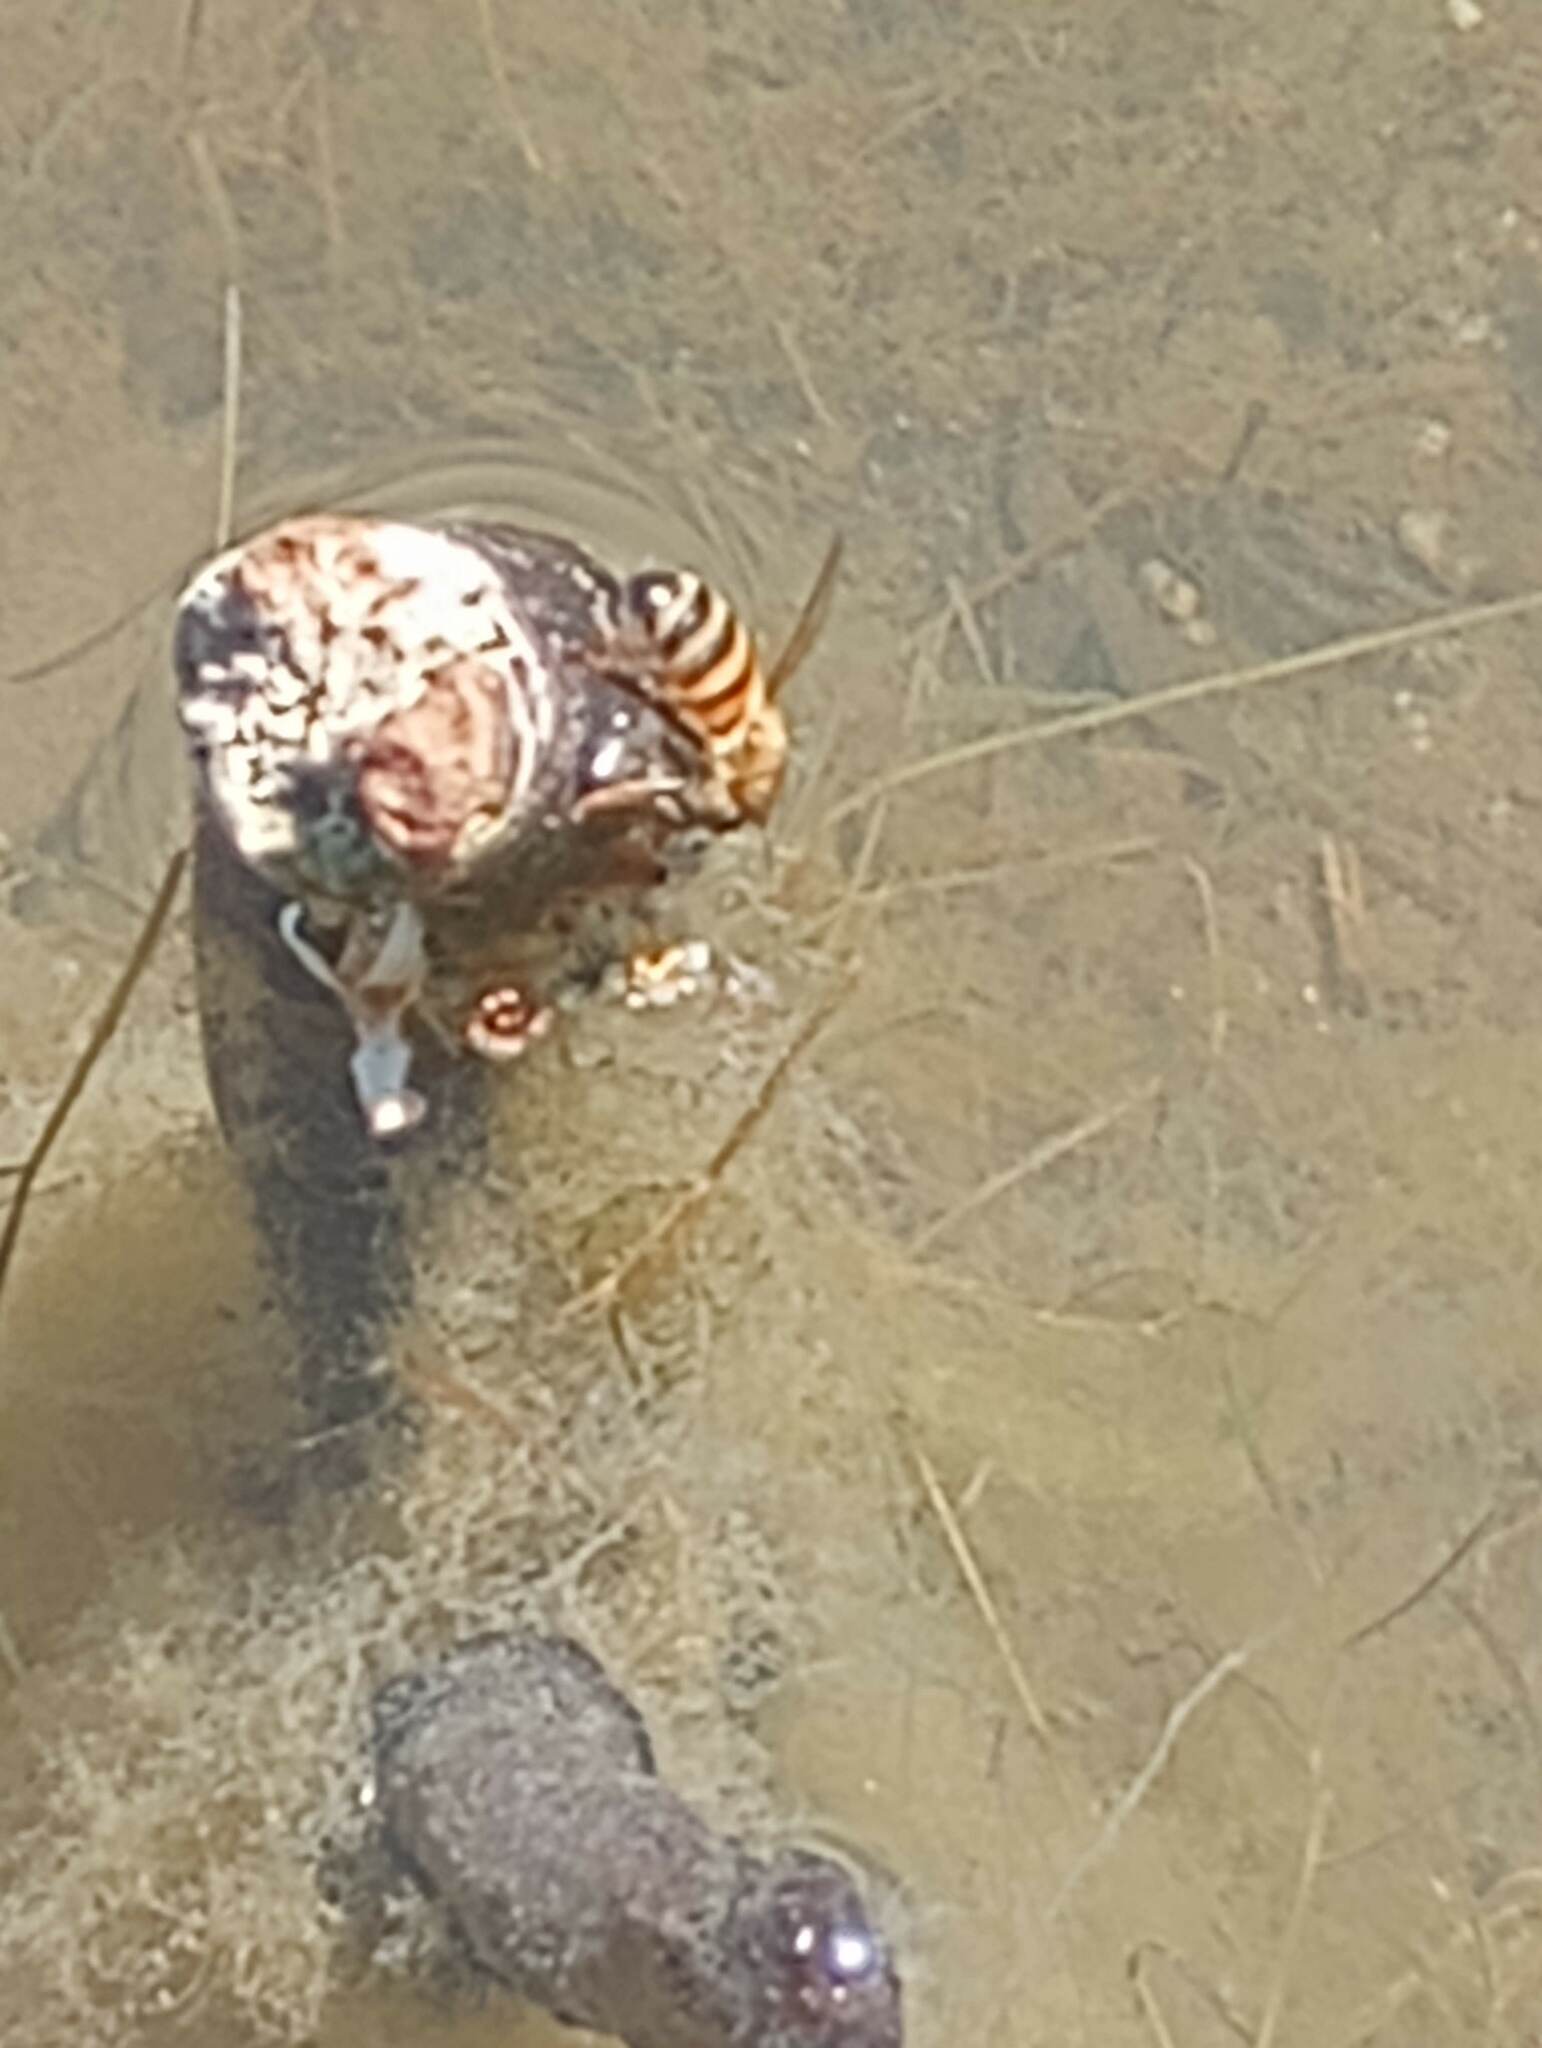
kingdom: Animalia
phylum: Arthropoda
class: Insecta
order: Hymenoptera
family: Apidae
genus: Apis
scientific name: Apis mellifera
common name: Honey bee
